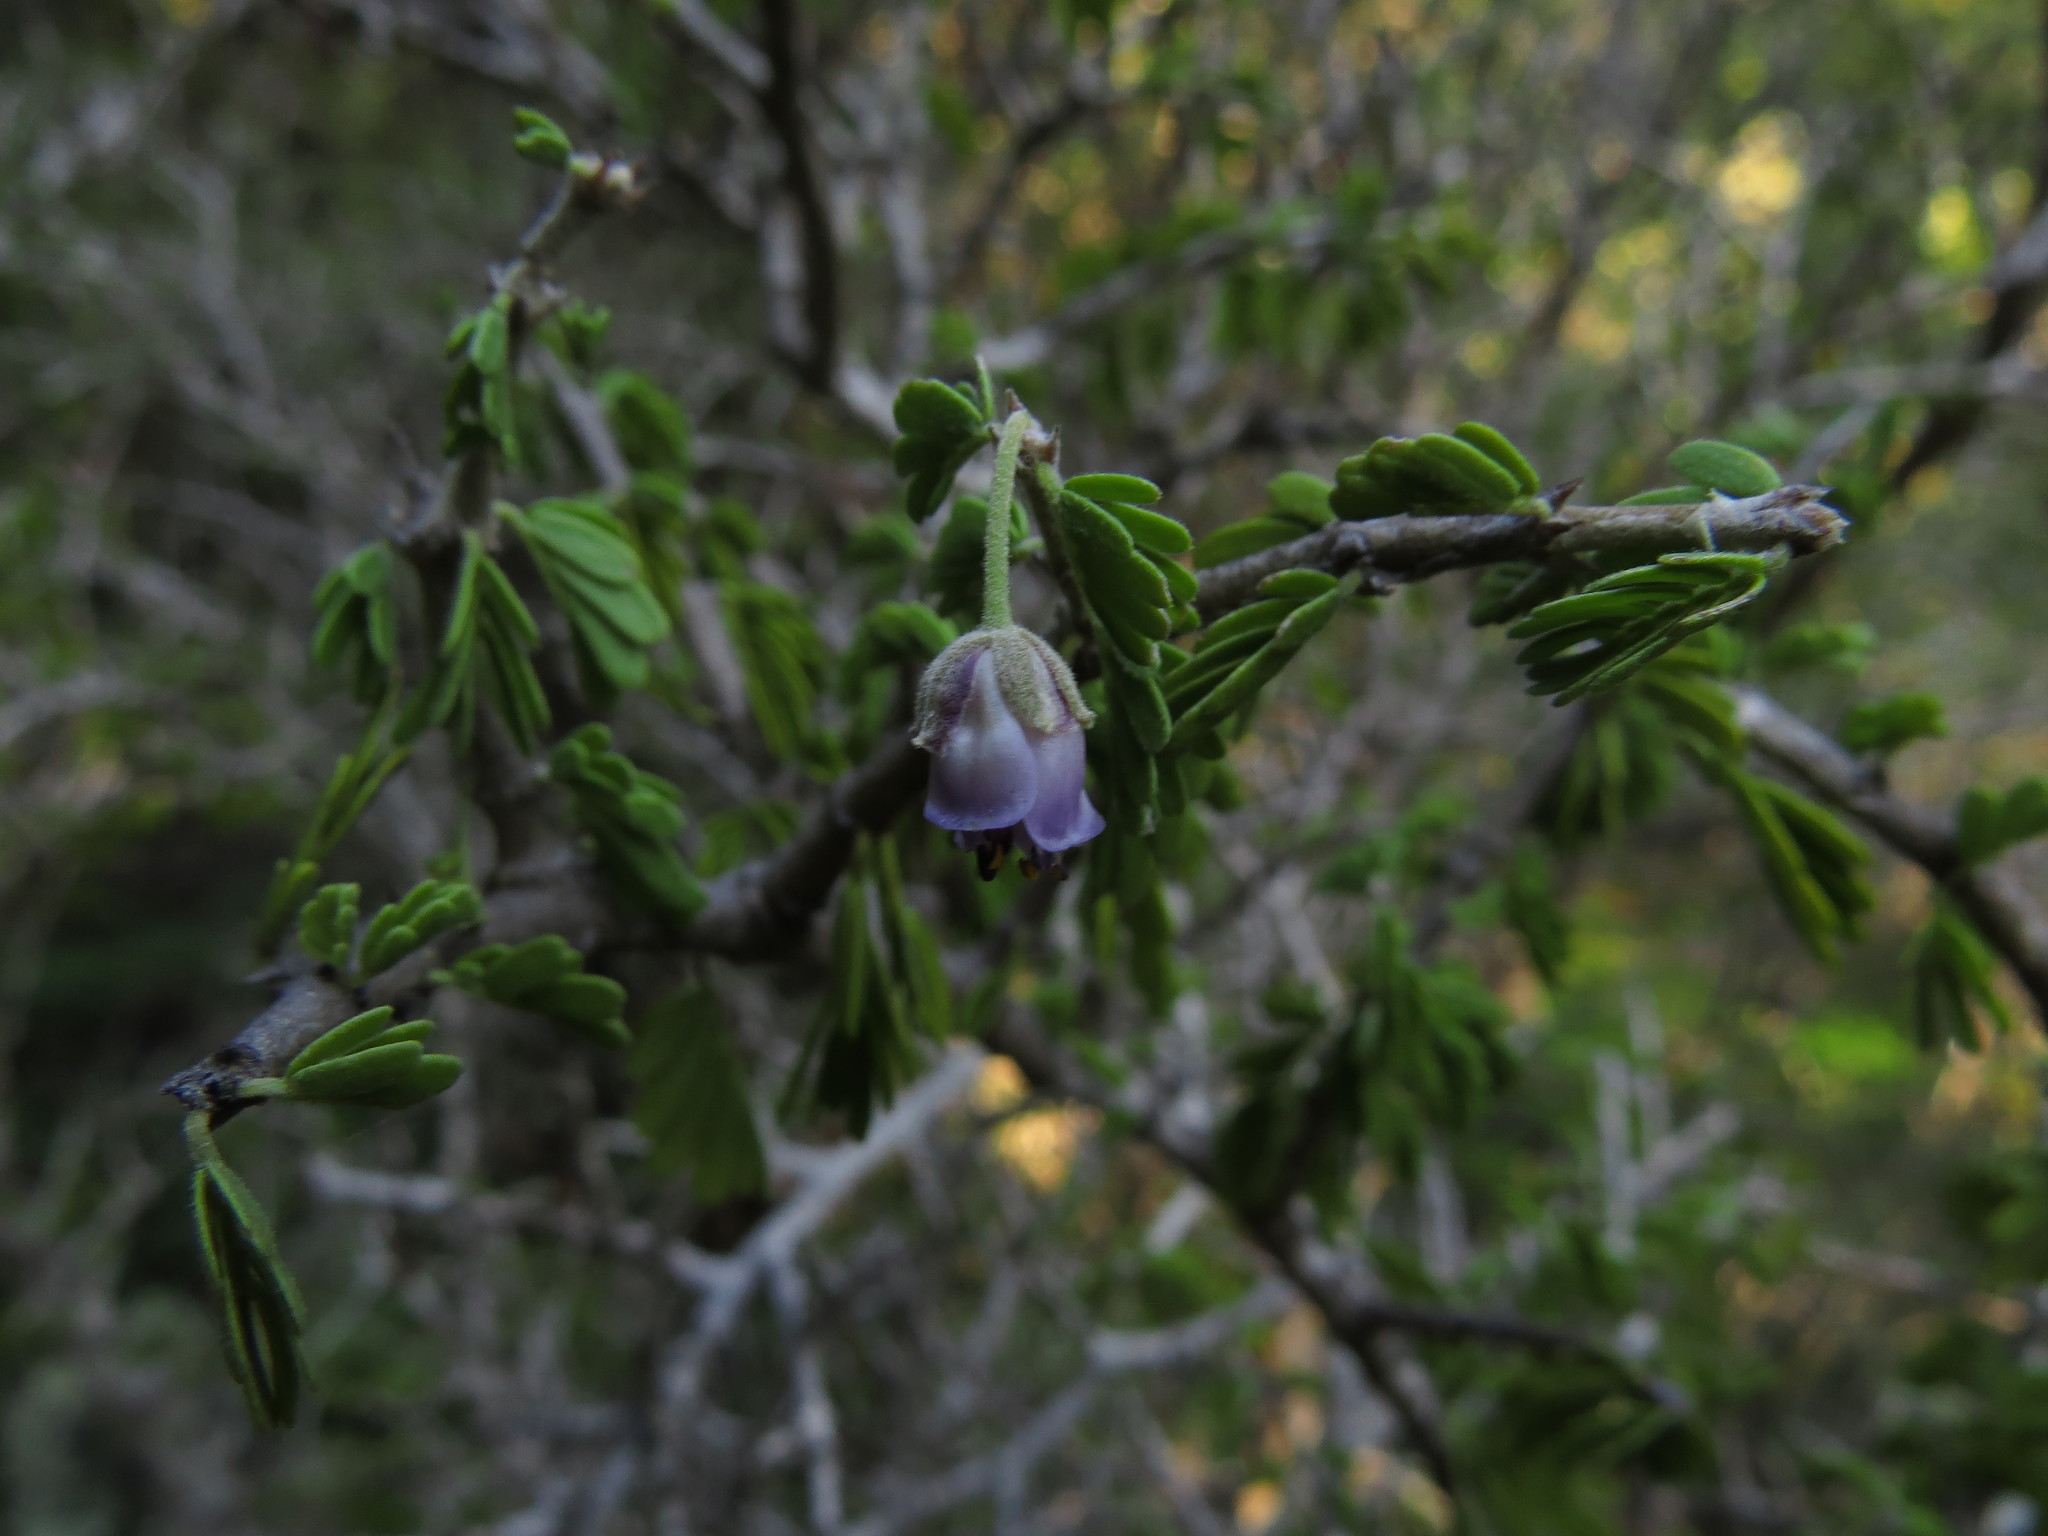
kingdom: Plantae
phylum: Tracheophyta
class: Magnoliopsida
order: Zygophyllales
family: Zygophyllaceae
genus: Porlieria
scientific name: Porlieria chilensis
